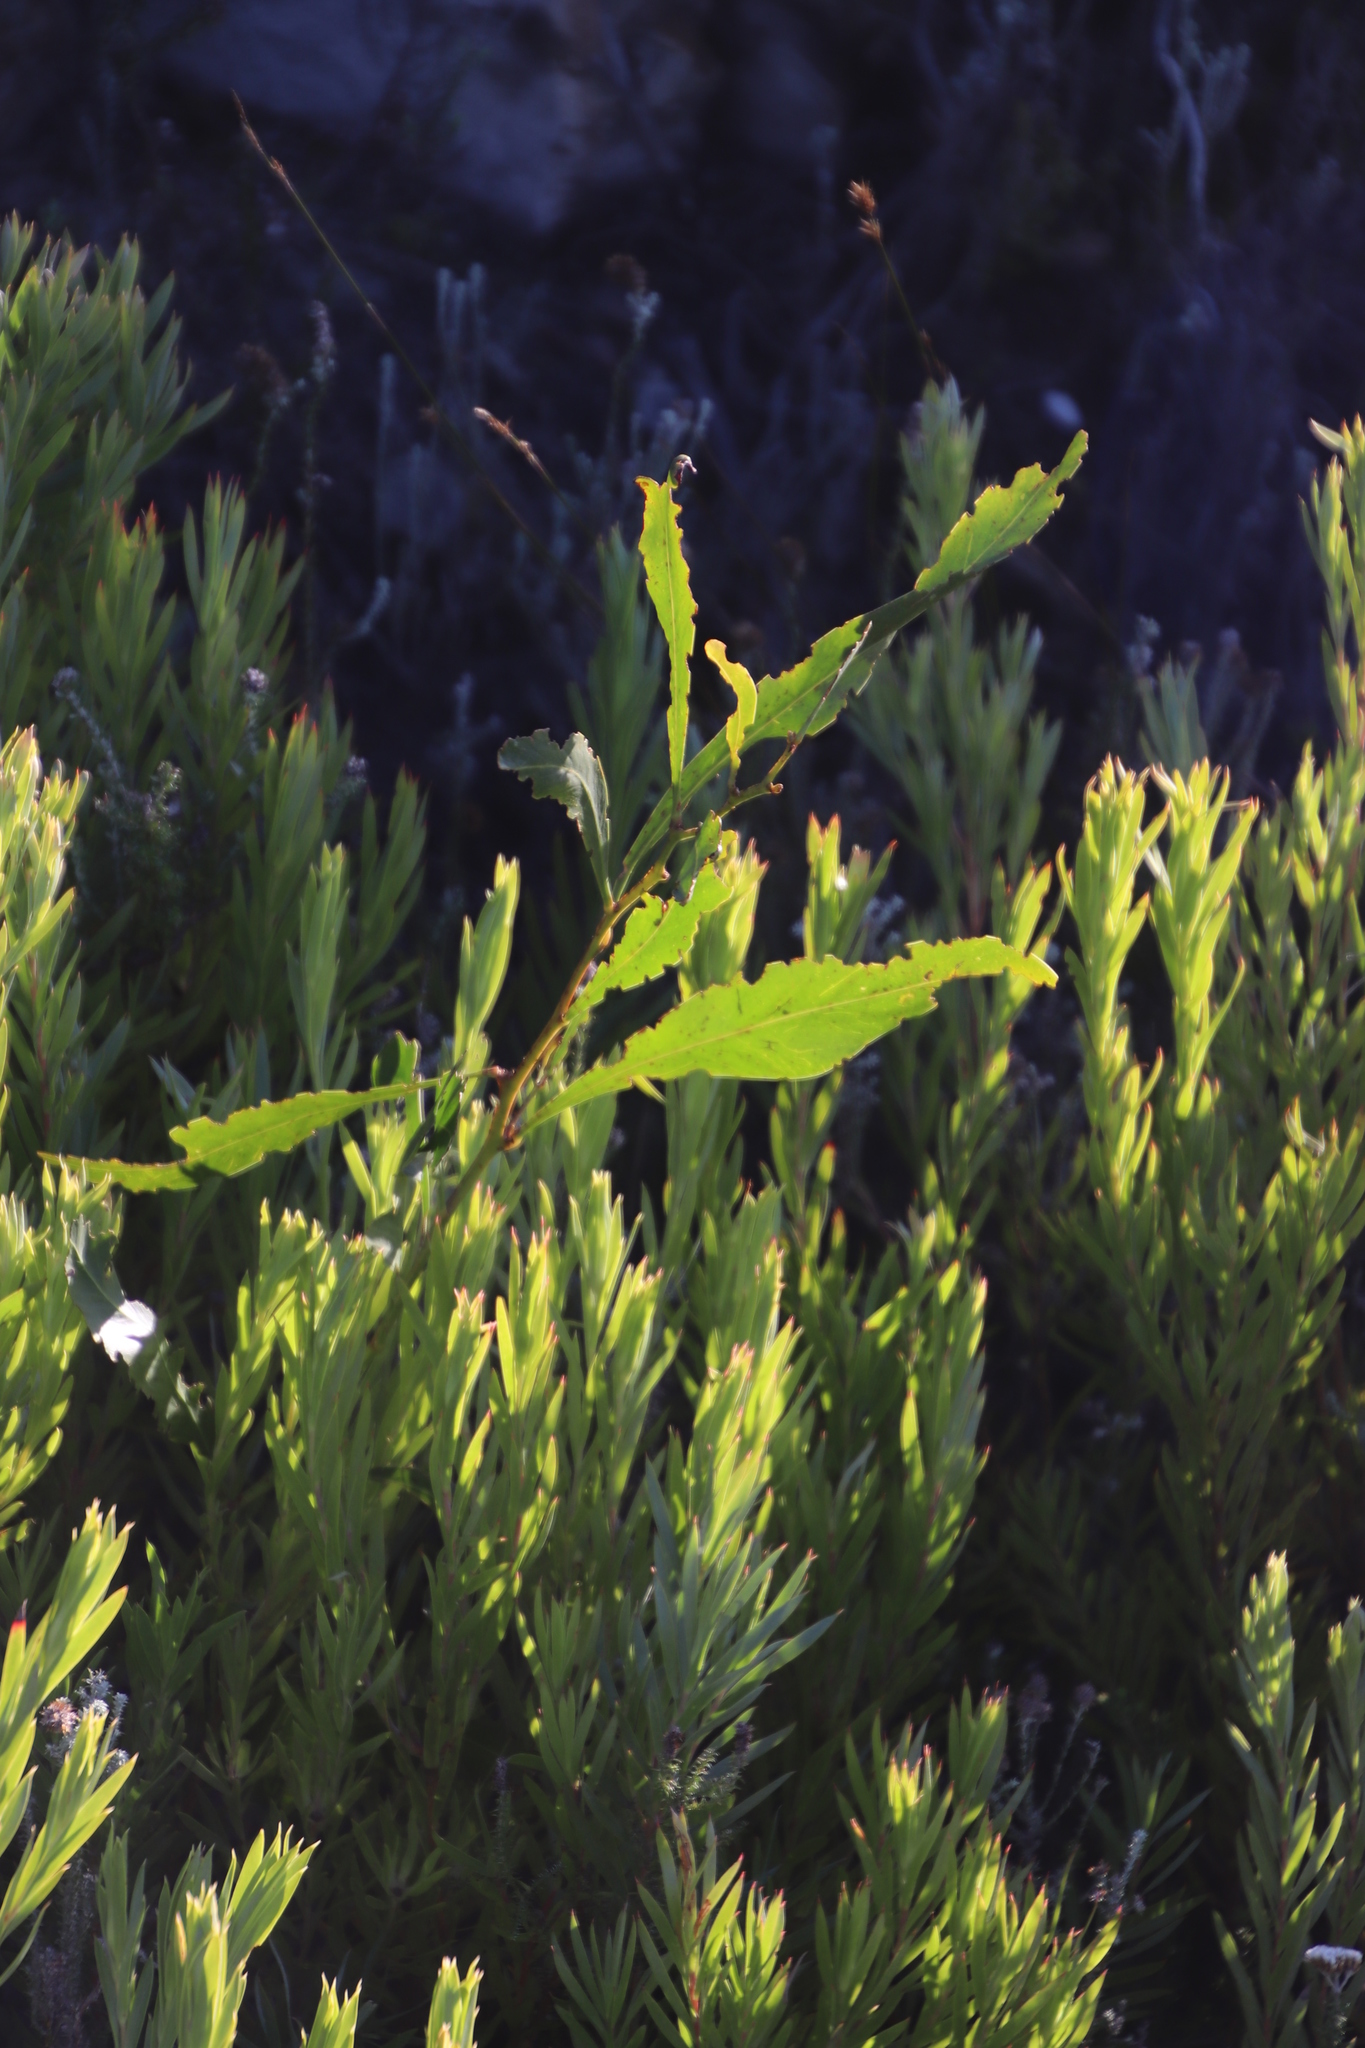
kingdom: Plantae
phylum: Tracheophyta
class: Magnoliopsida
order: Fabales
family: Fabaceae
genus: Acacia
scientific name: Acacia saligna
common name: Orange wattle
